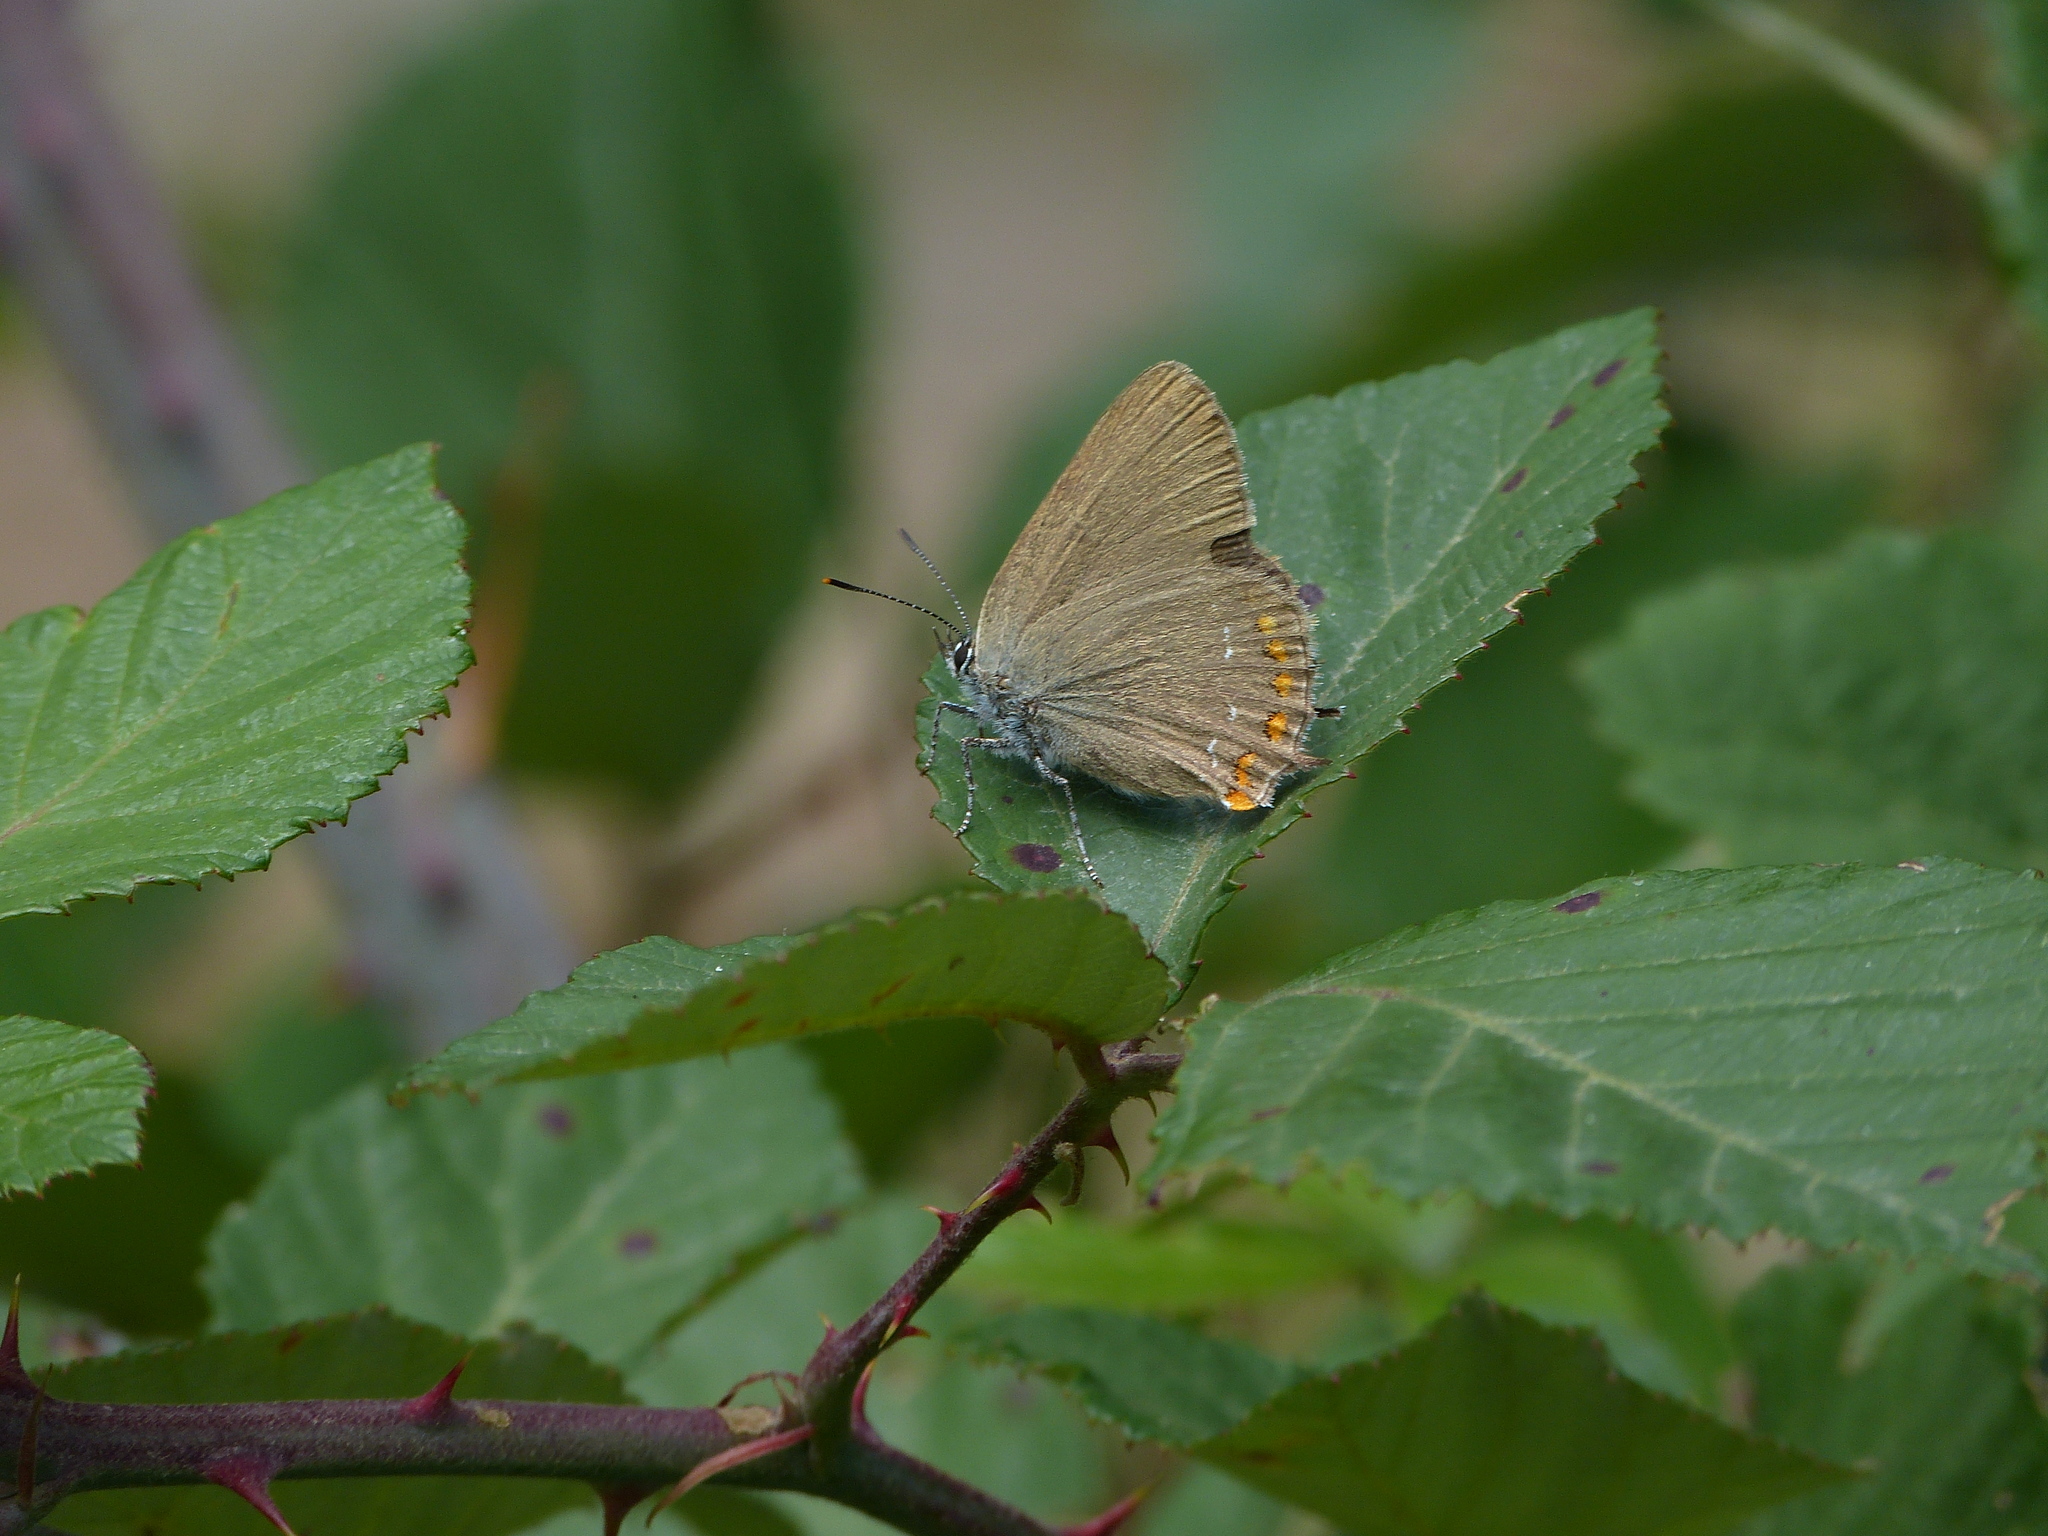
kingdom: Animalia
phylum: Arthropoda
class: Insecta
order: Lepidoptera
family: Lycaenidae
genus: Fixsenia
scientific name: Fixsenia esculi
